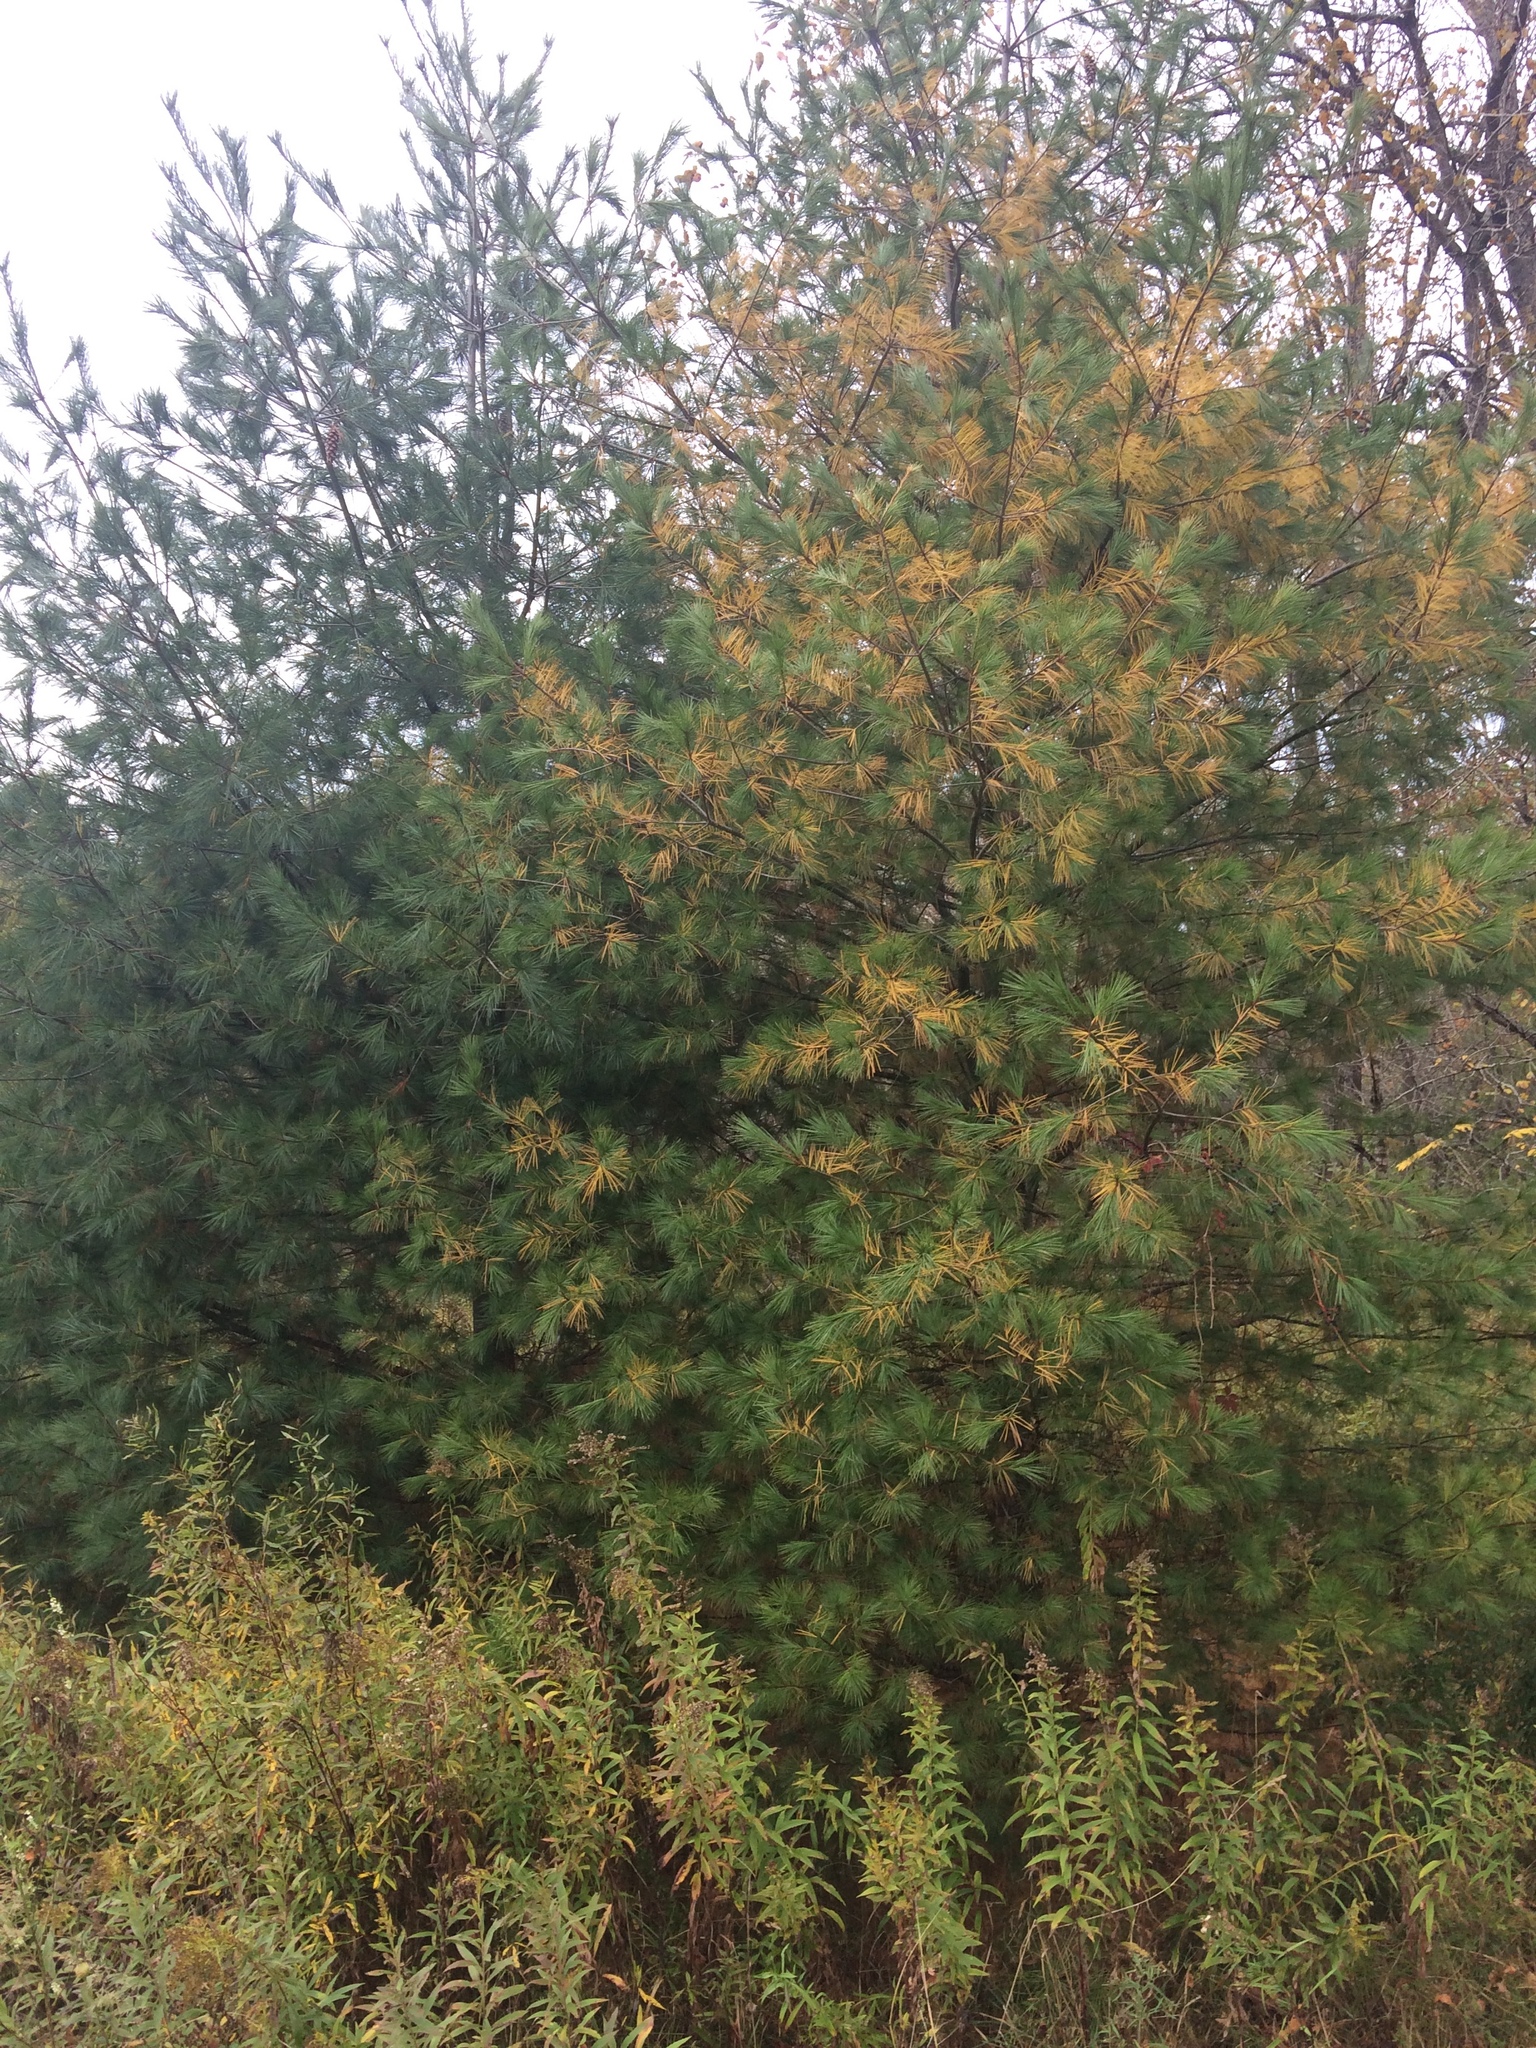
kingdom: Plantae
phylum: Tracheophyta
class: Pinopsida
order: Pinales
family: Pinaceae
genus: Pinus
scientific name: Pinus strobus
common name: Weymouth pine
